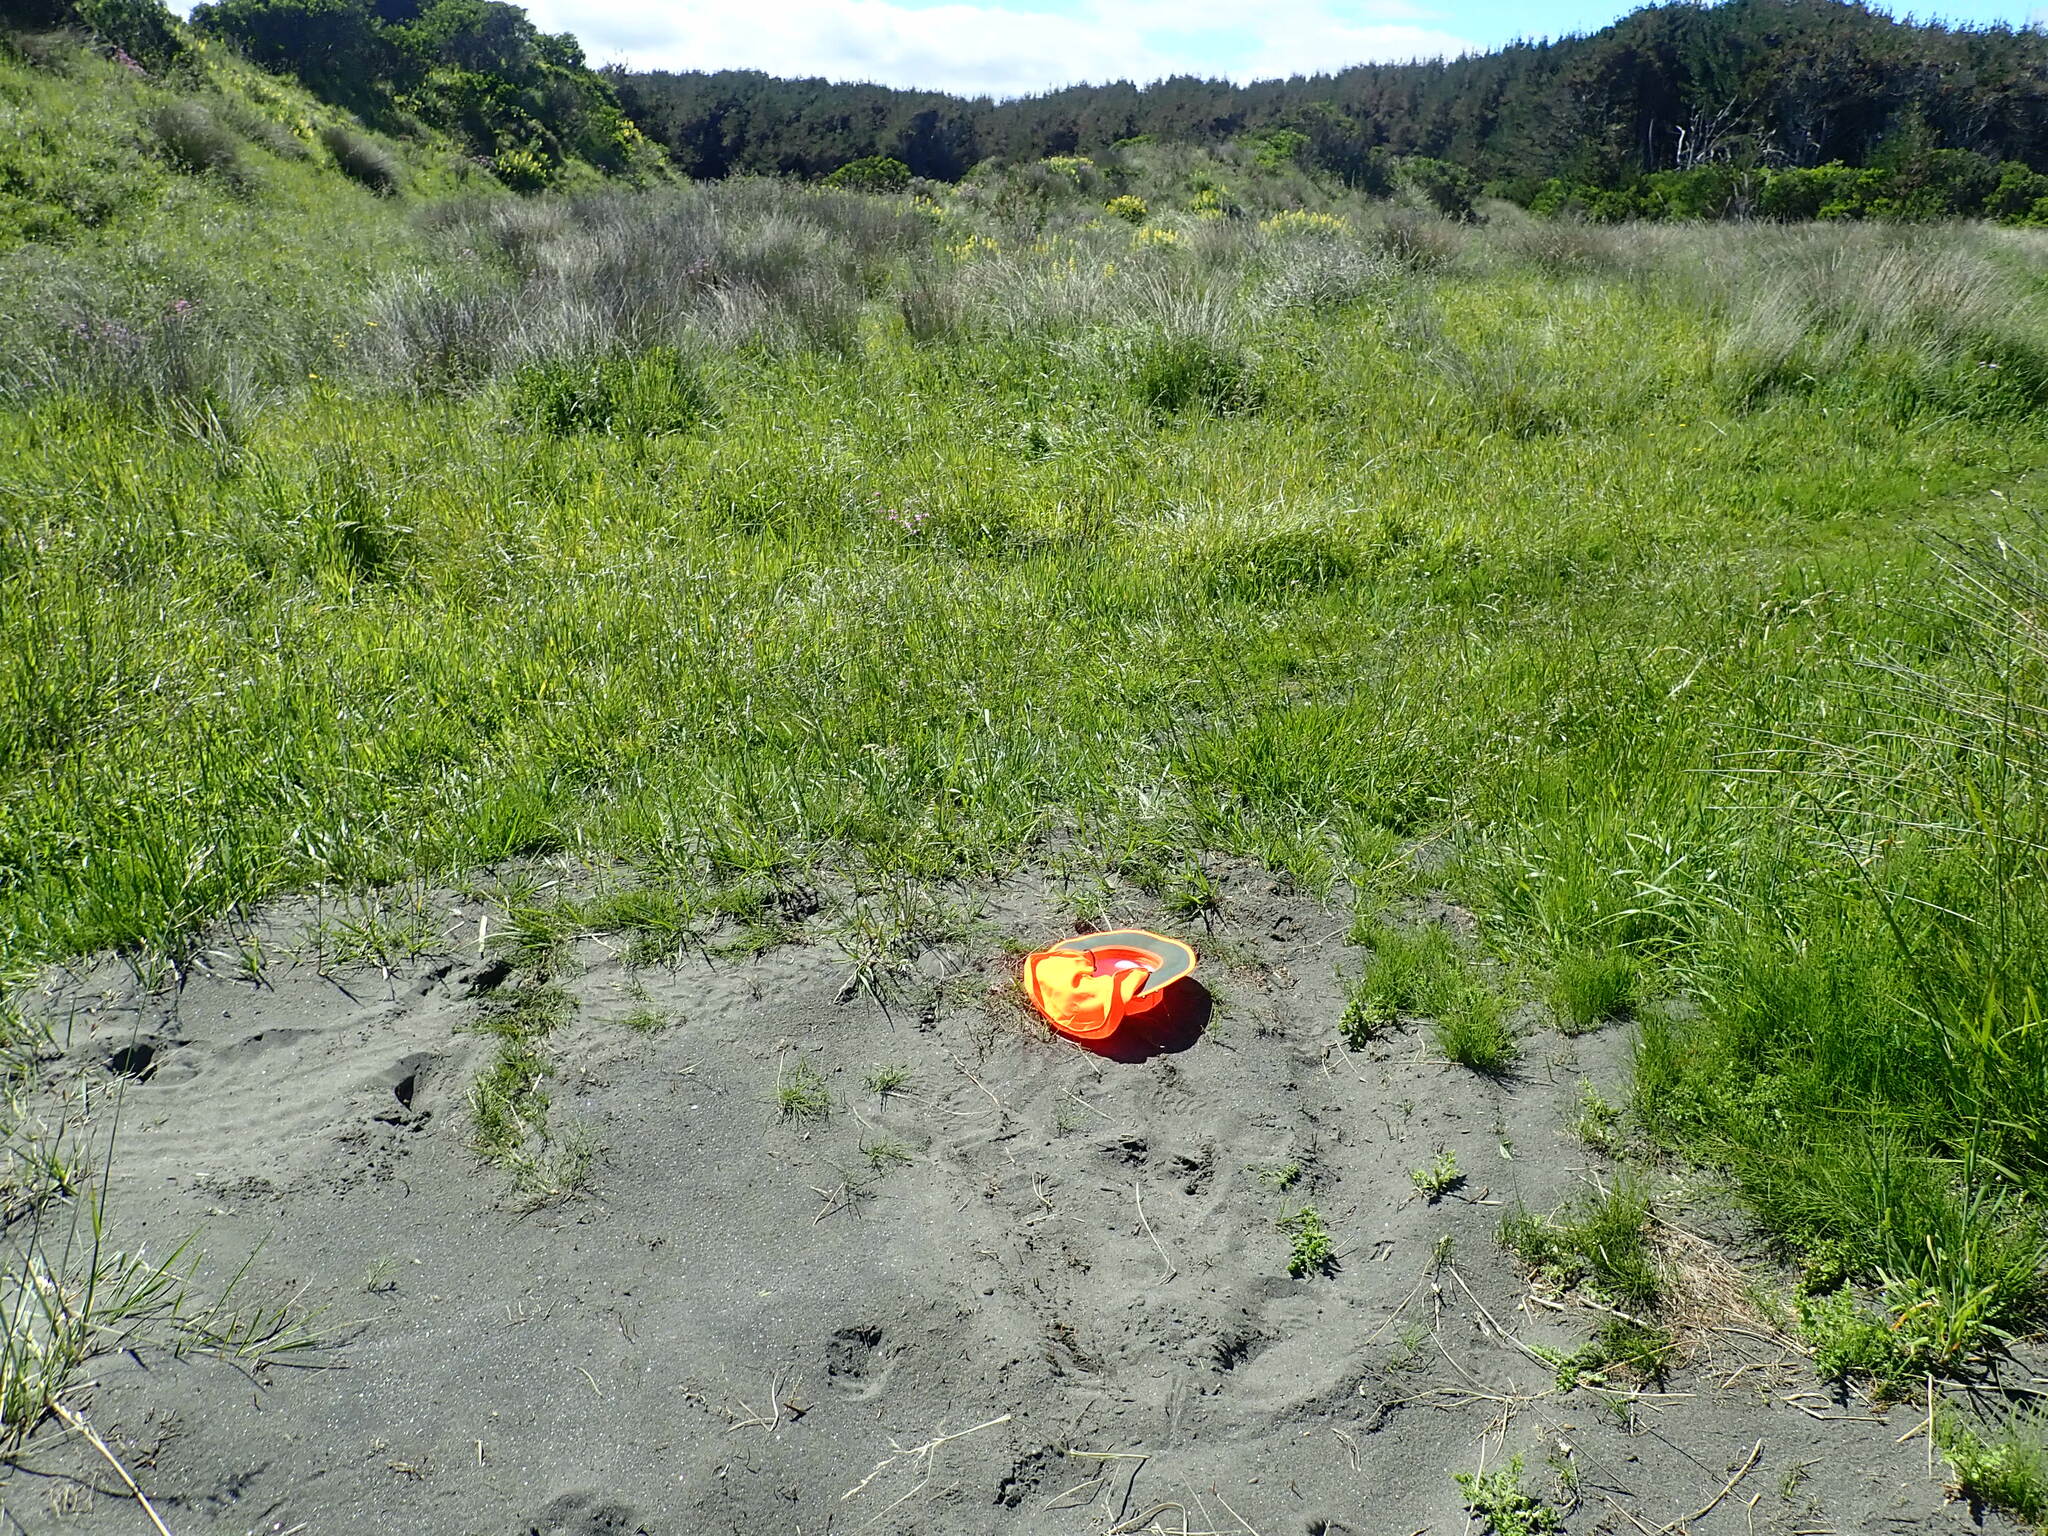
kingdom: Plantae
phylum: Tracheophyta
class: Polypodiopsida
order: Equisetales
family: Equisetaceae
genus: Equisetum
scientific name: Equisetum arvense
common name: Field horsetail
